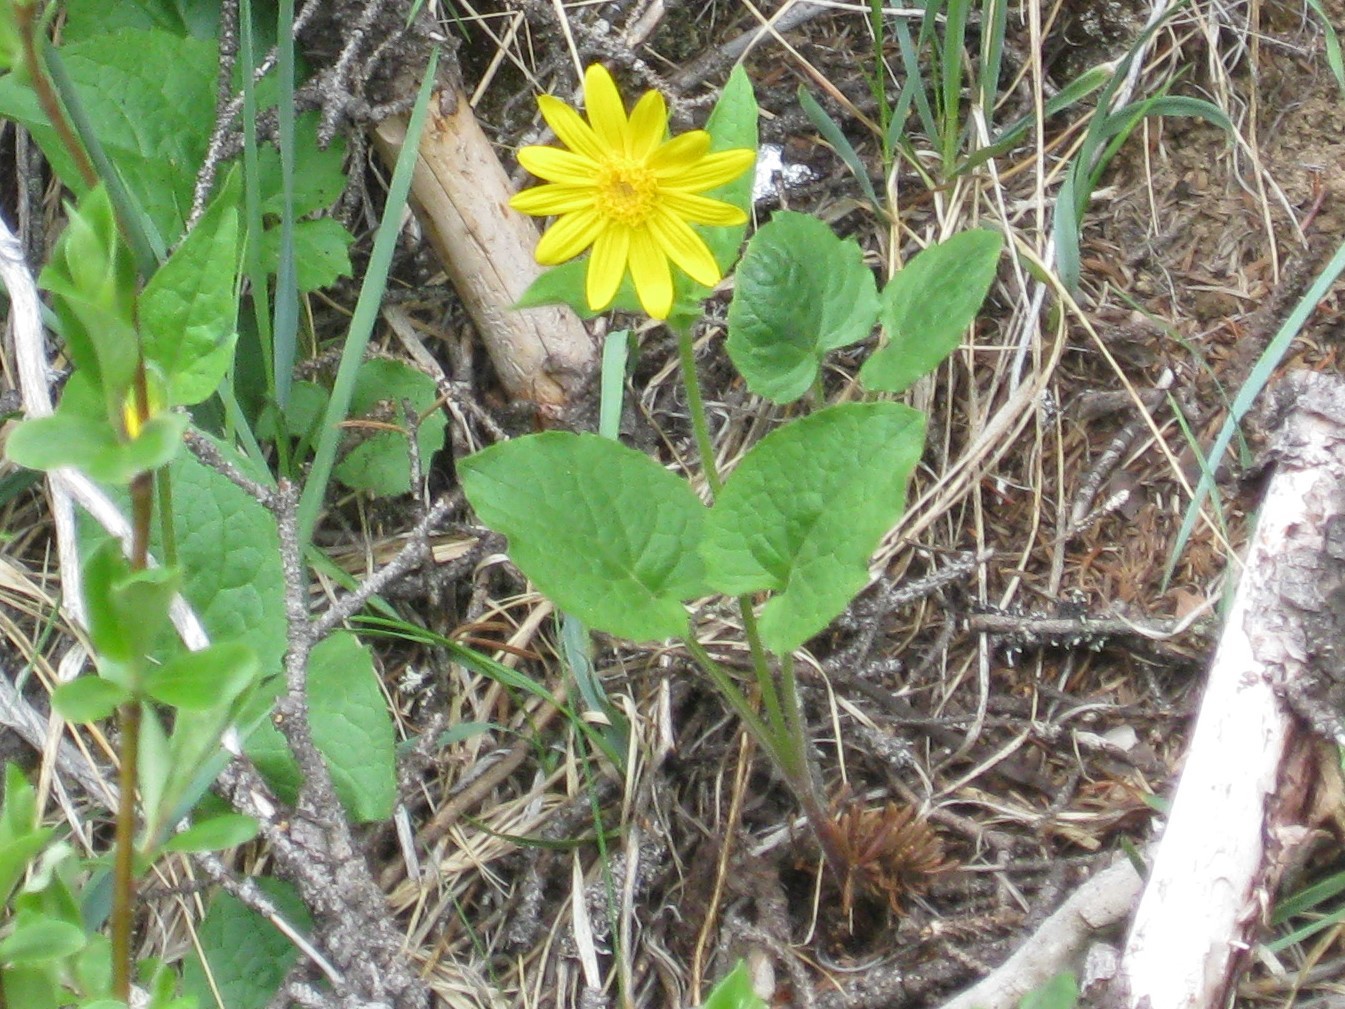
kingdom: Plantae
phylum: Tracheophyta
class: Magnoliopsida
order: Asterales
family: Asteraceae
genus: Arnica
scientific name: Arnica cordifolia
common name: Heart-leaf arnica
